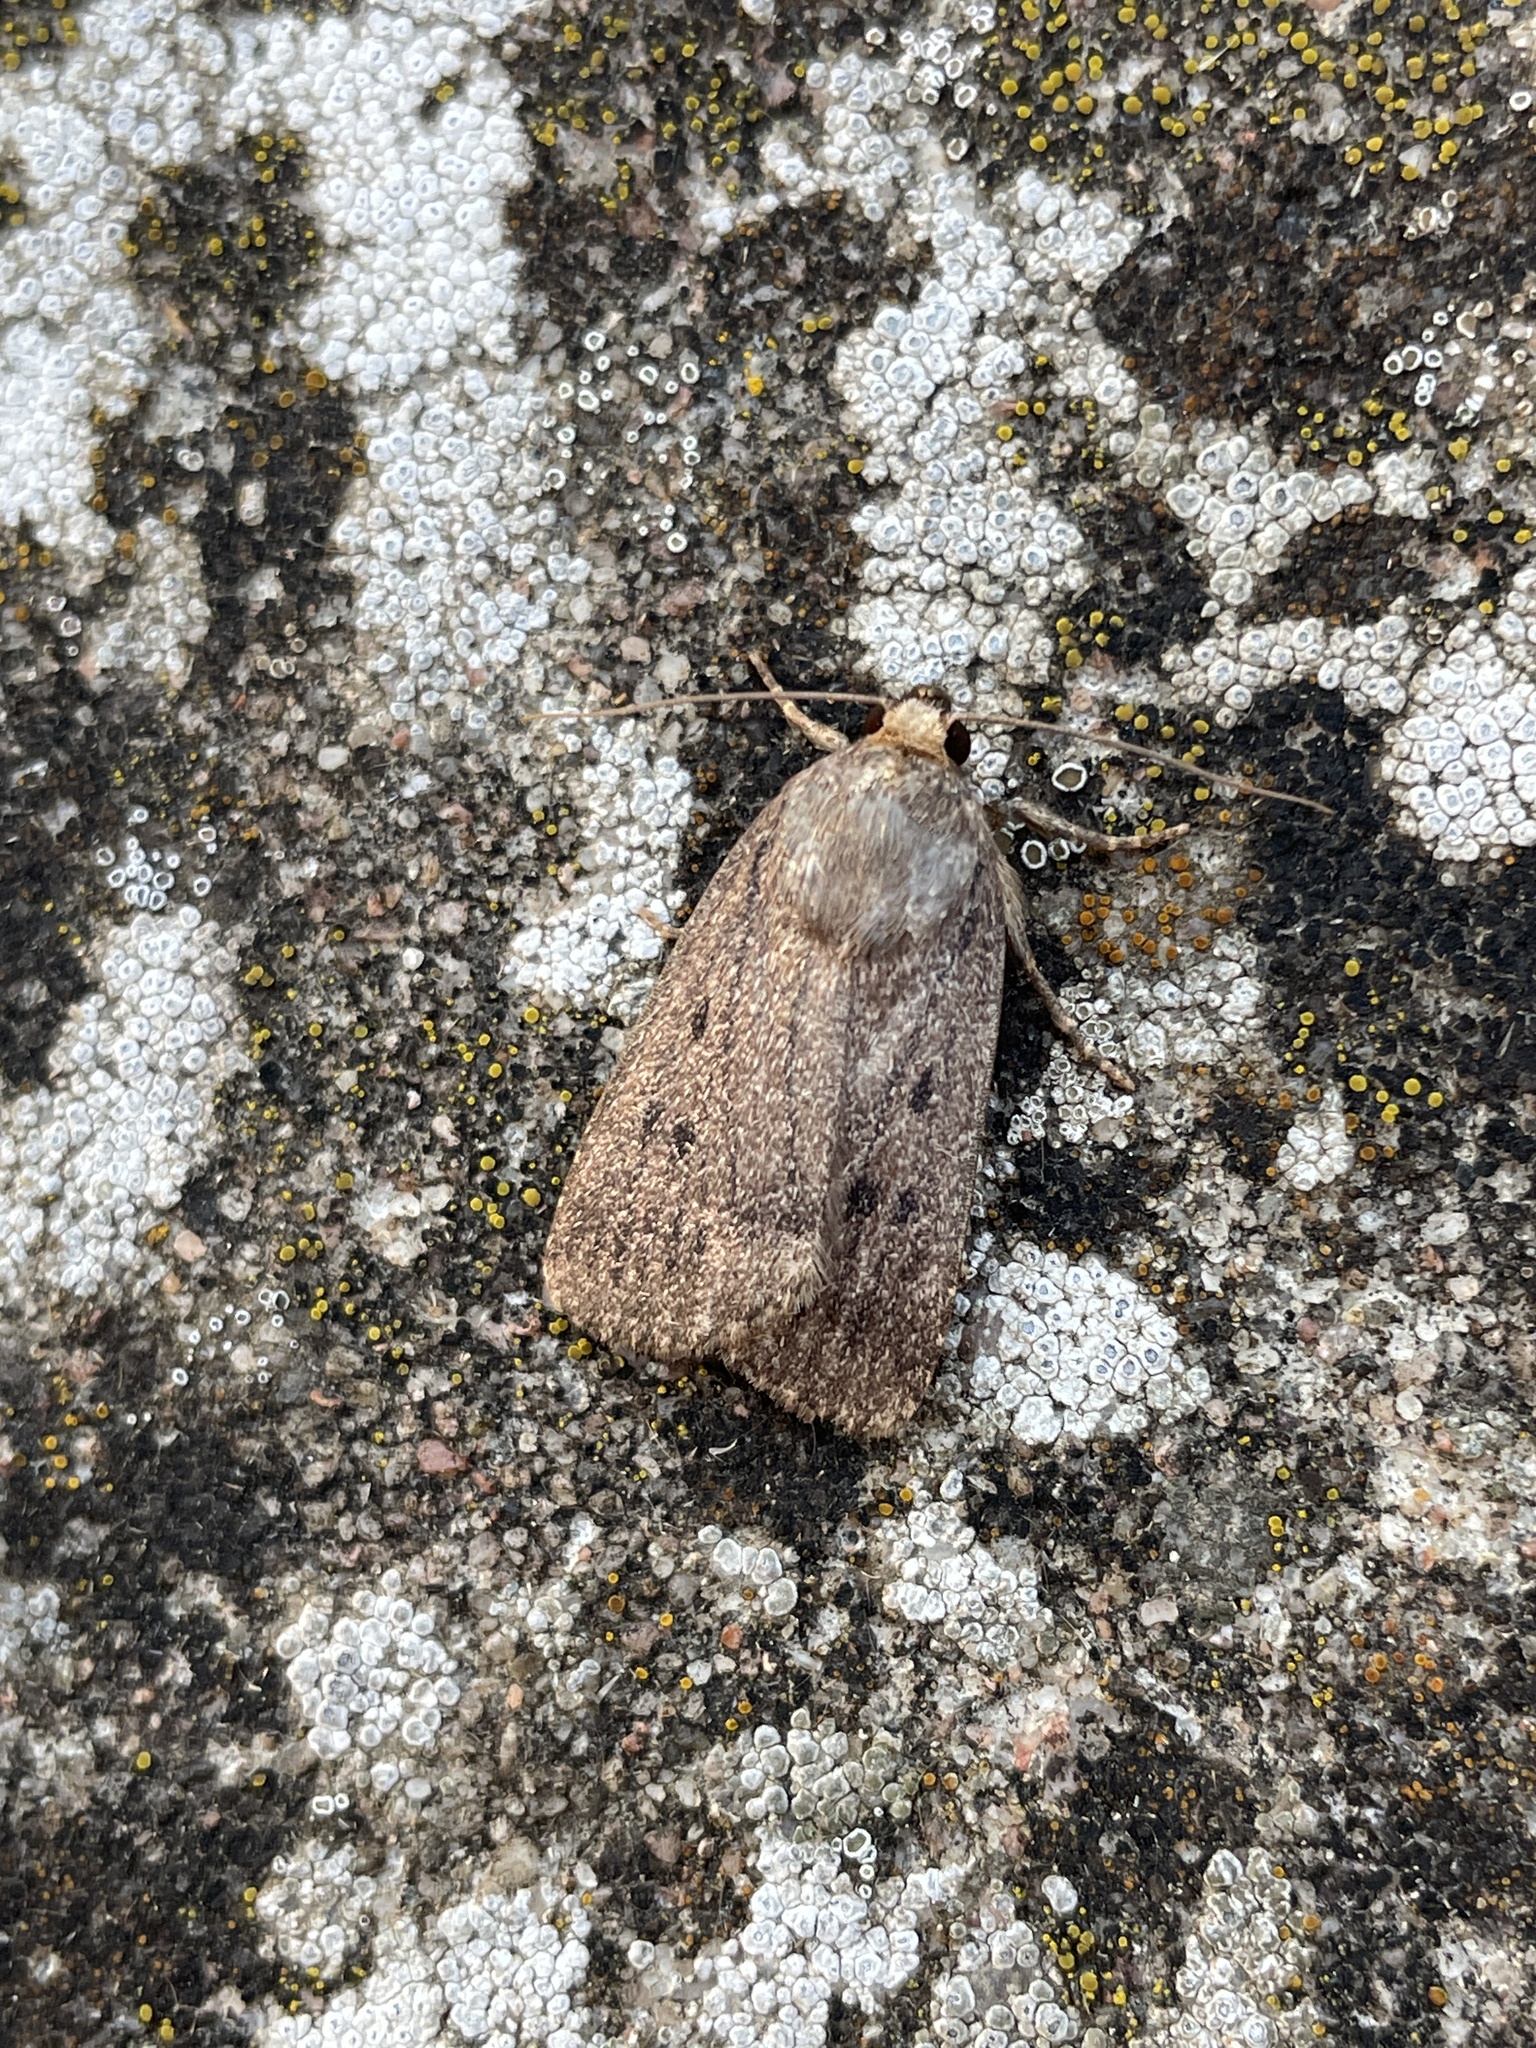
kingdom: Animalia
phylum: Arthropoda
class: Insecta
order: Lepidoptera
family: Noctuidae
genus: Amphipyra
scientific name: Amphipyra tragopoginis
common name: Mouse moth
